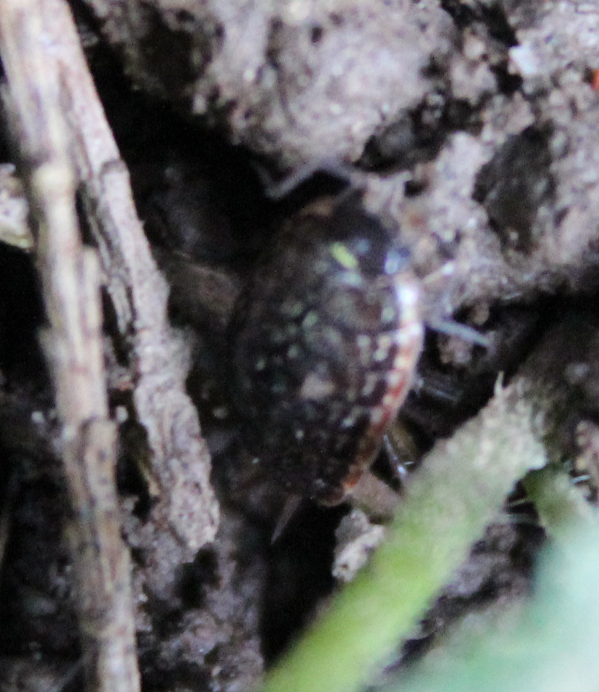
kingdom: Animalia
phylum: Arthropoda
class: Malacostraca
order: Isopoda
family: Philosciidae
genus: Philoscia
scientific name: Philoscia muscorum
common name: Common striped woodlouse
